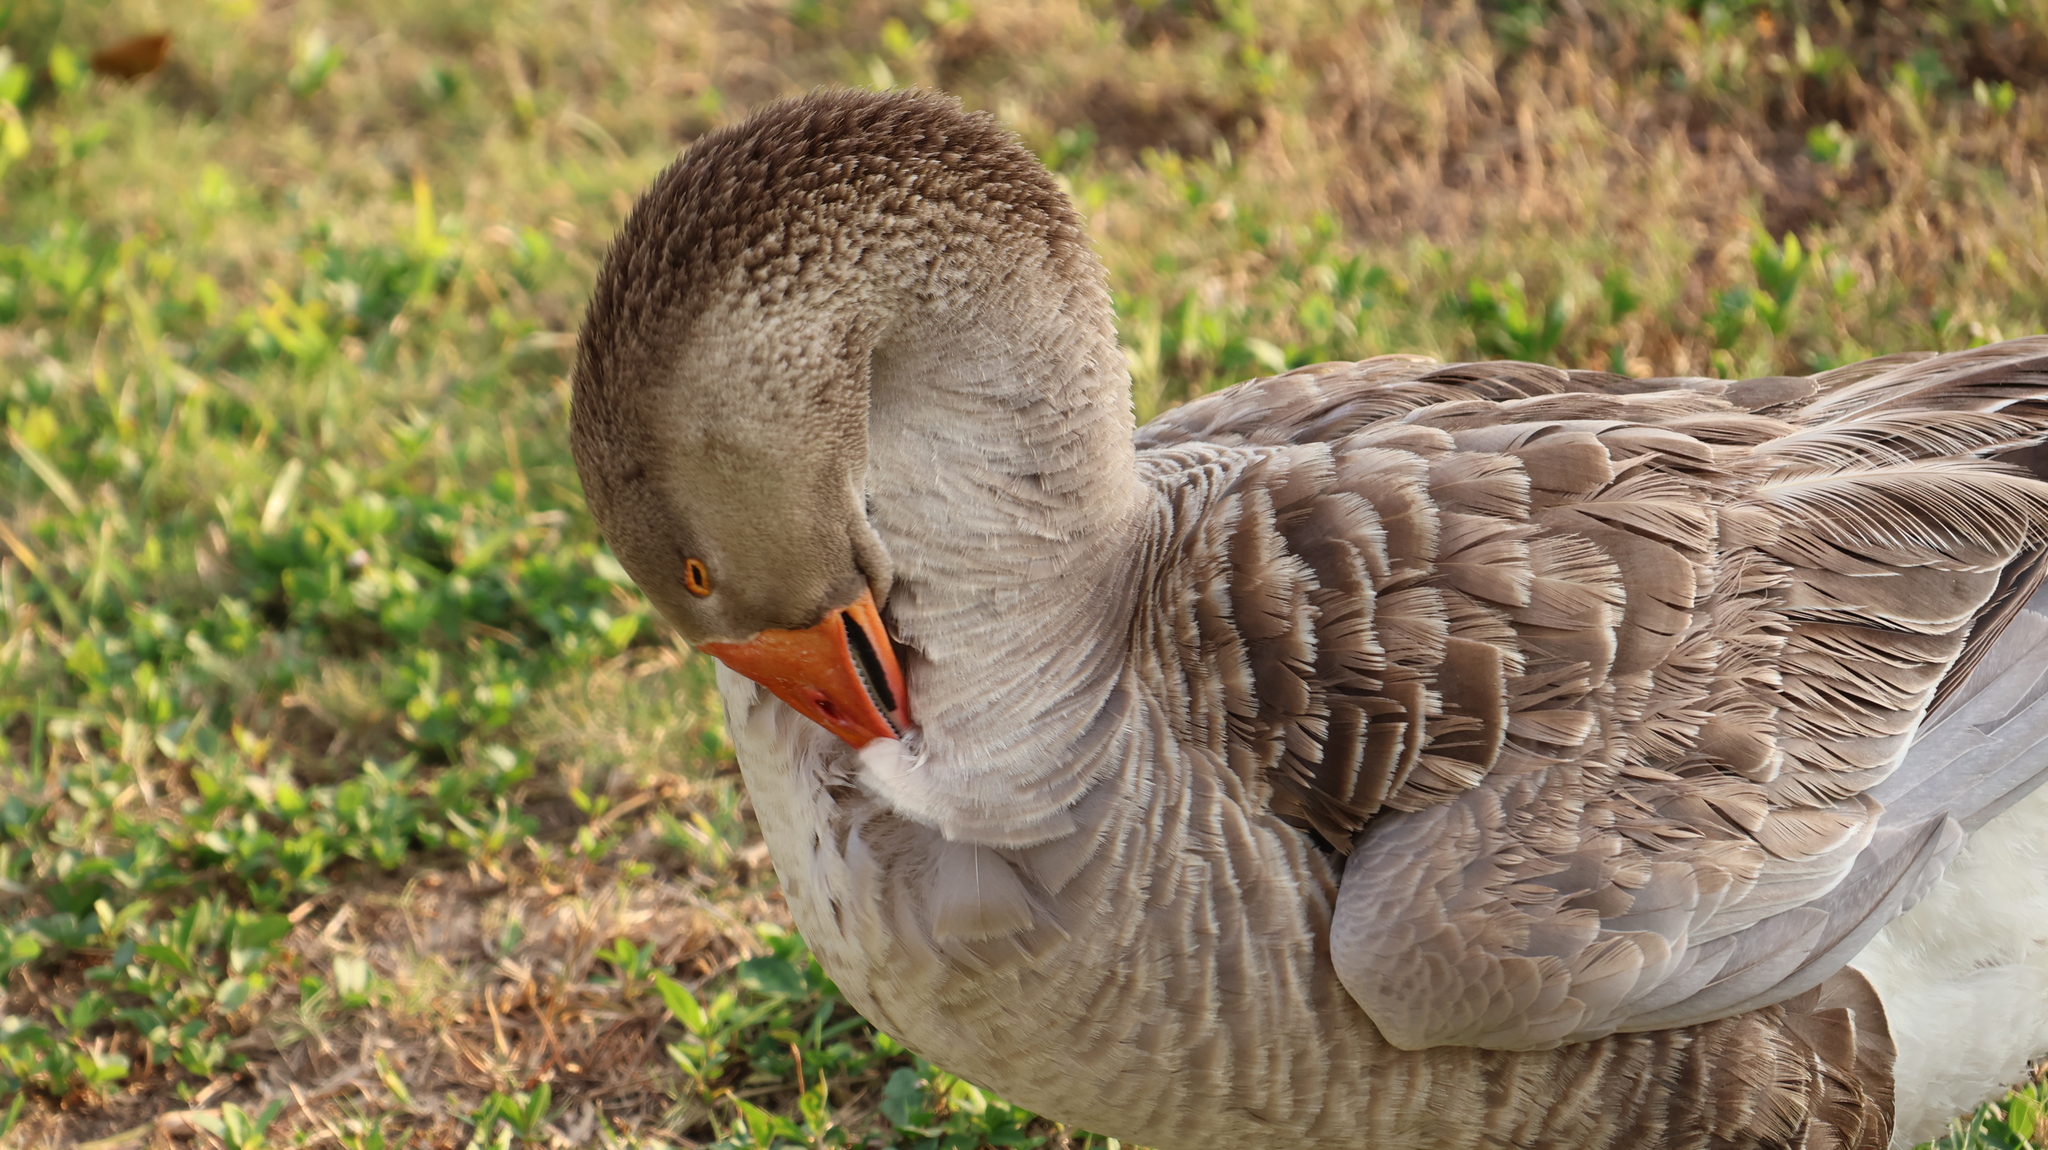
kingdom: Animalia
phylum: Chordata
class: Aves
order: Anseriformes
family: Anatidae
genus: Anser
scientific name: Anser anser
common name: Greylag goose
